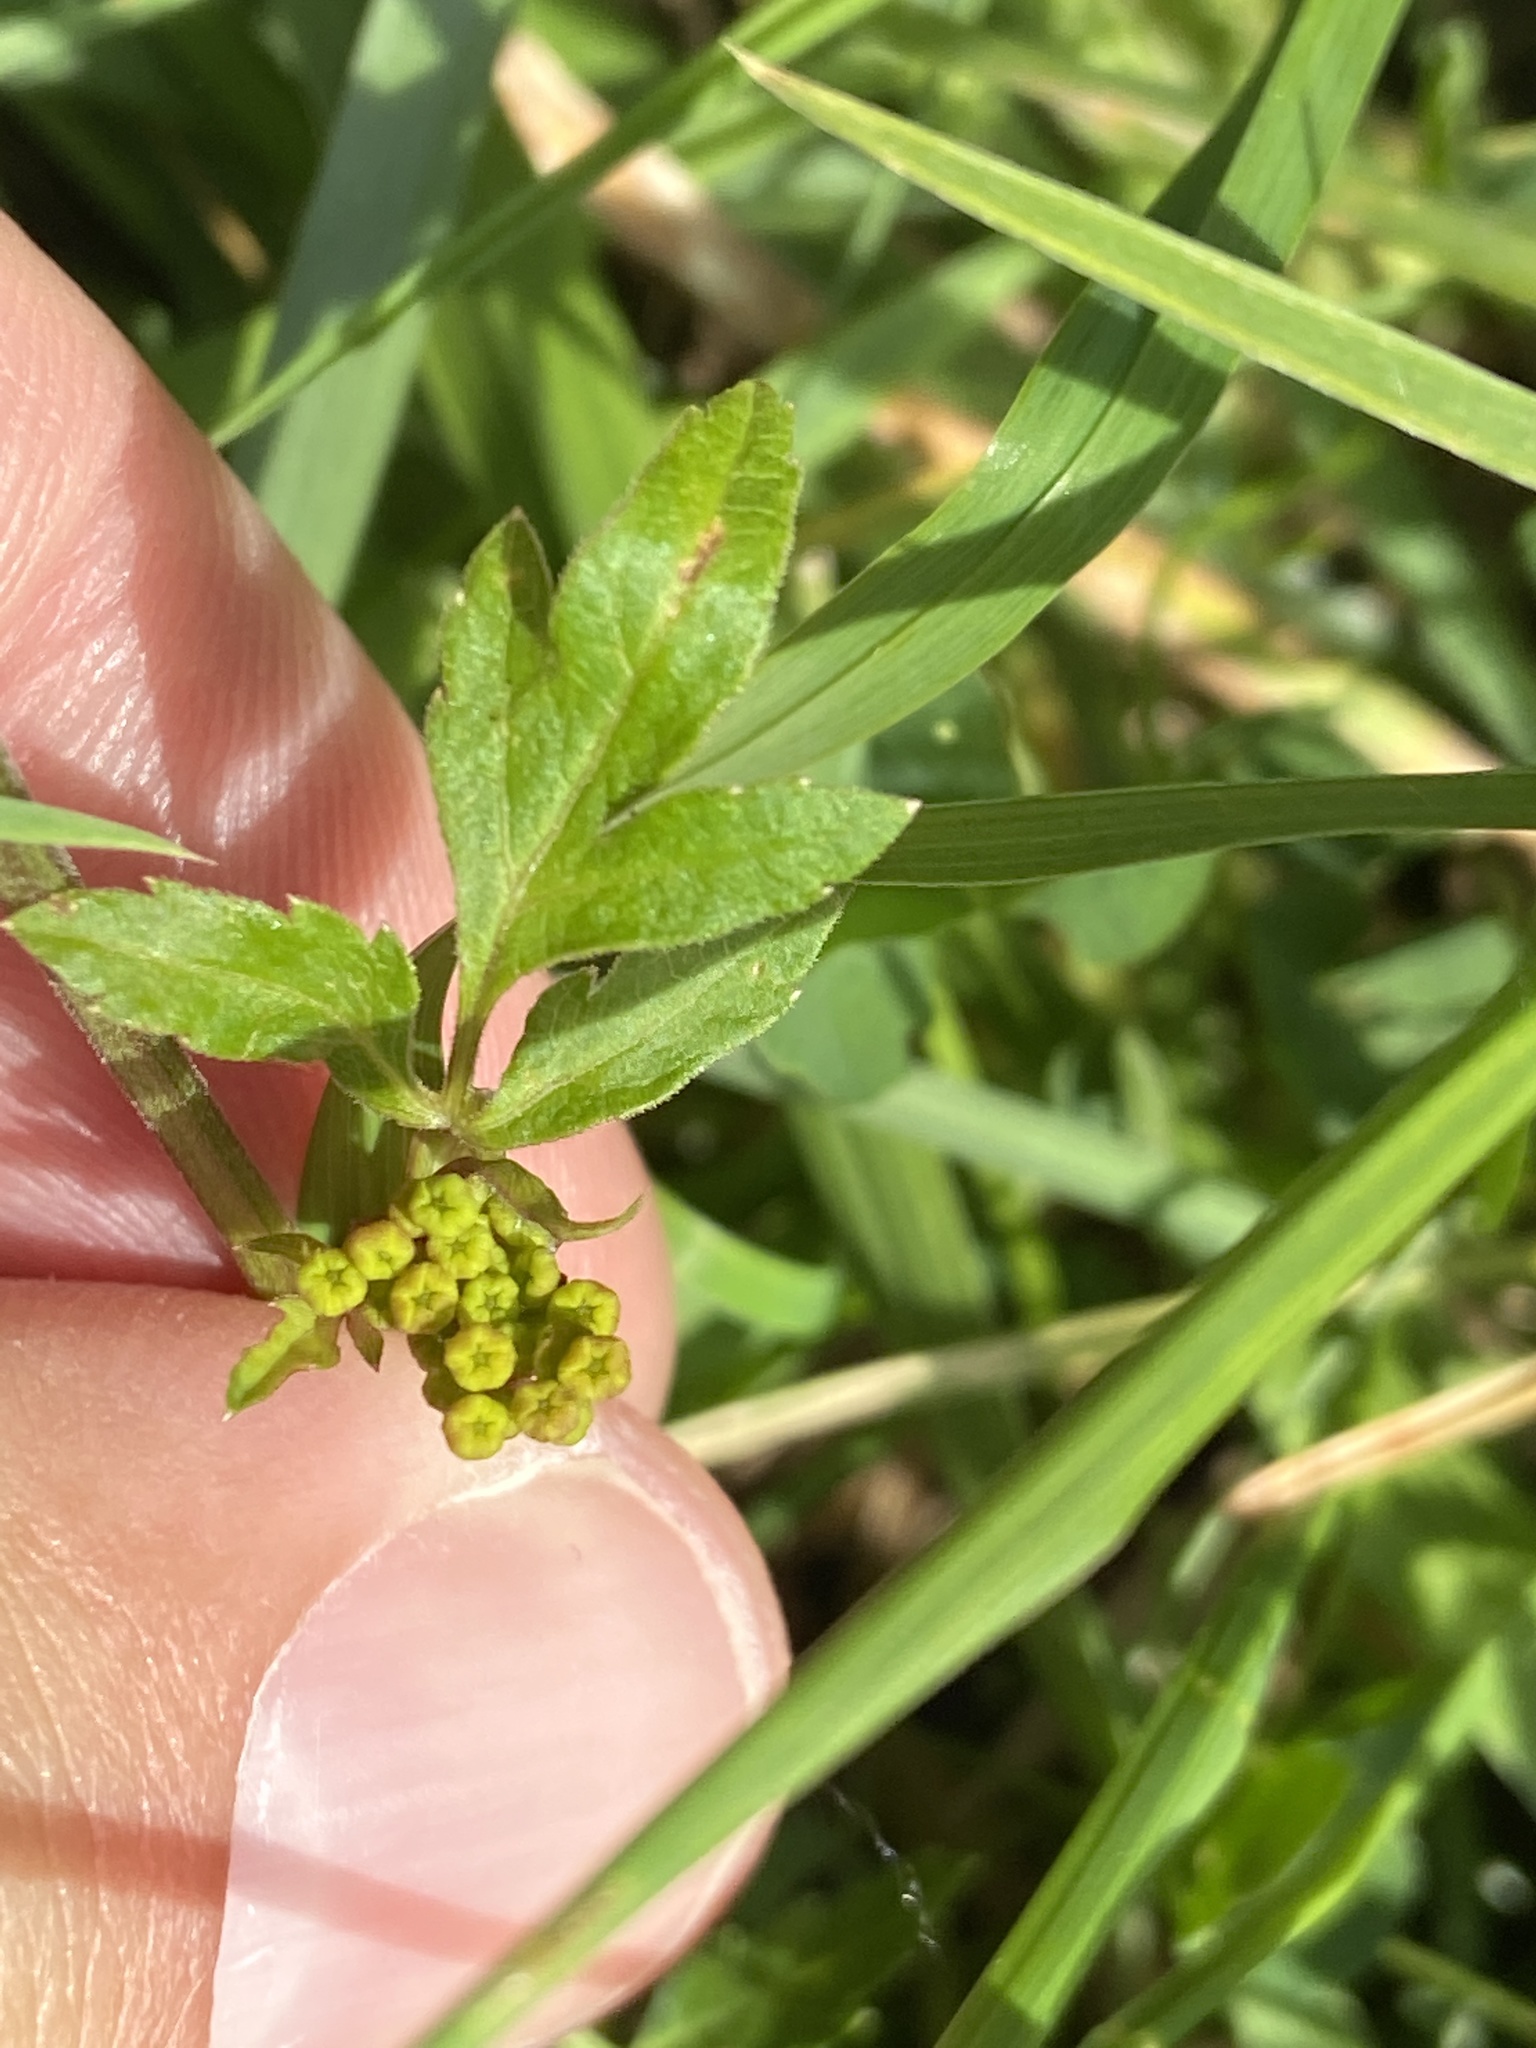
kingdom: Plantae
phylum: Tracheophyta
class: Magnoliopsida
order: Apiales
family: Apiaceae
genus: Pastinaca
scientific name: Pastinaca sativa
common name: Wild parsnip
